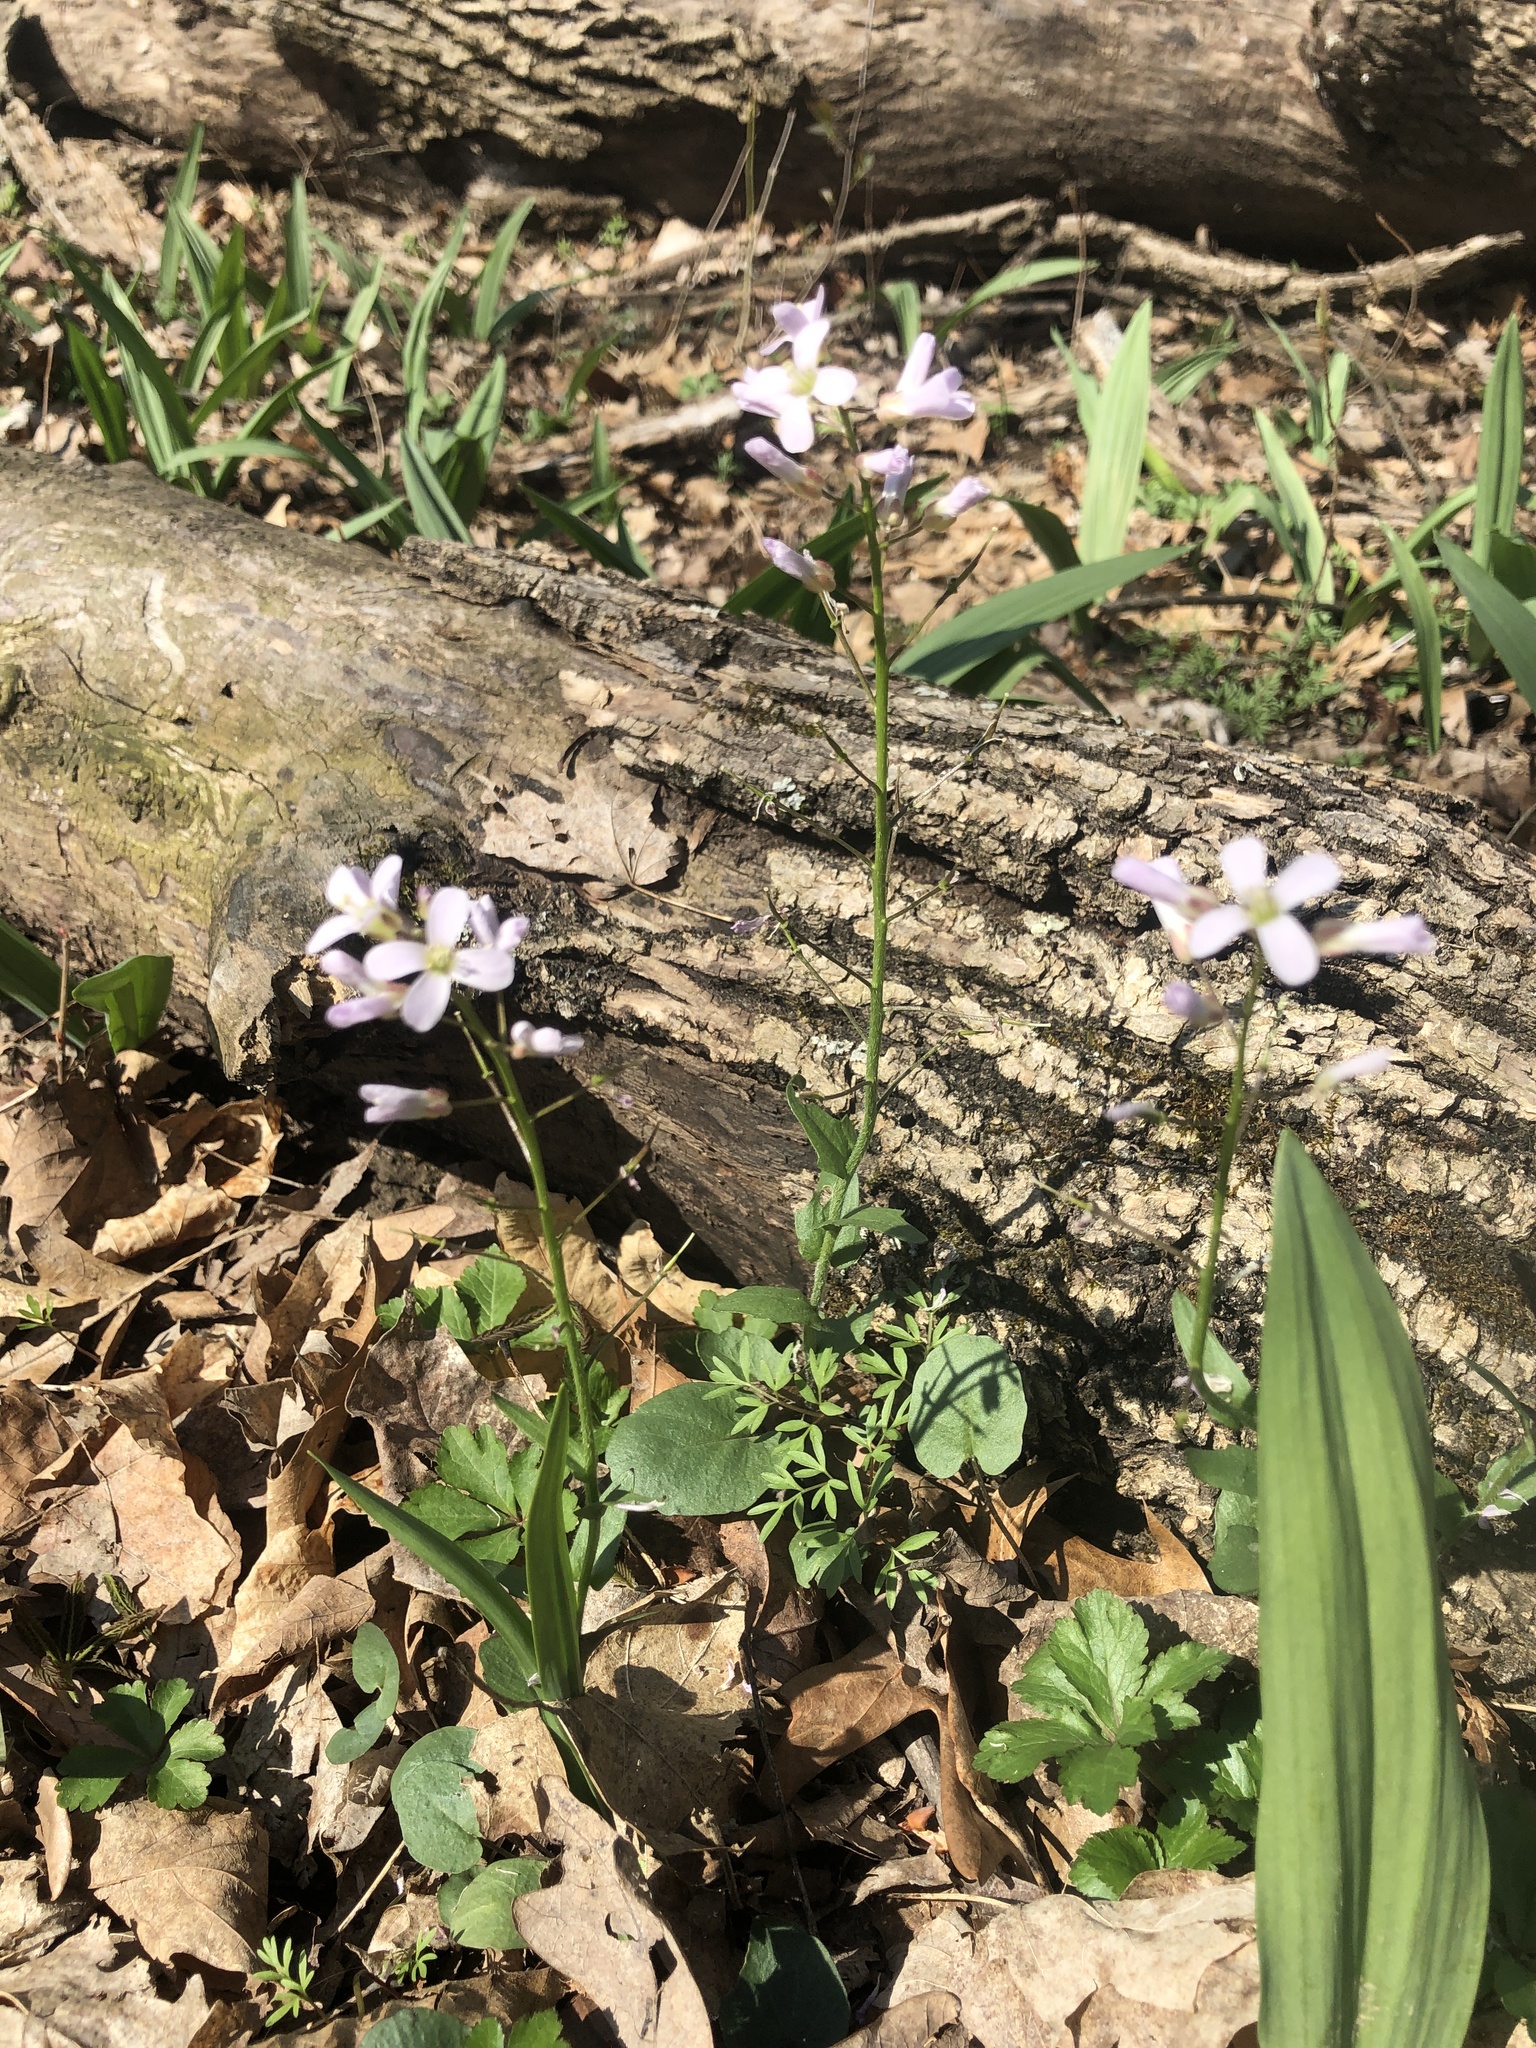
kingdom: Plantae
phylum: Tracheophyta
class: Magnoliopsida
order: Brassicales
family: Brassicaceae
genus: Cardamine
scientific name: Cardamine douglassii
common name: Purple cress
